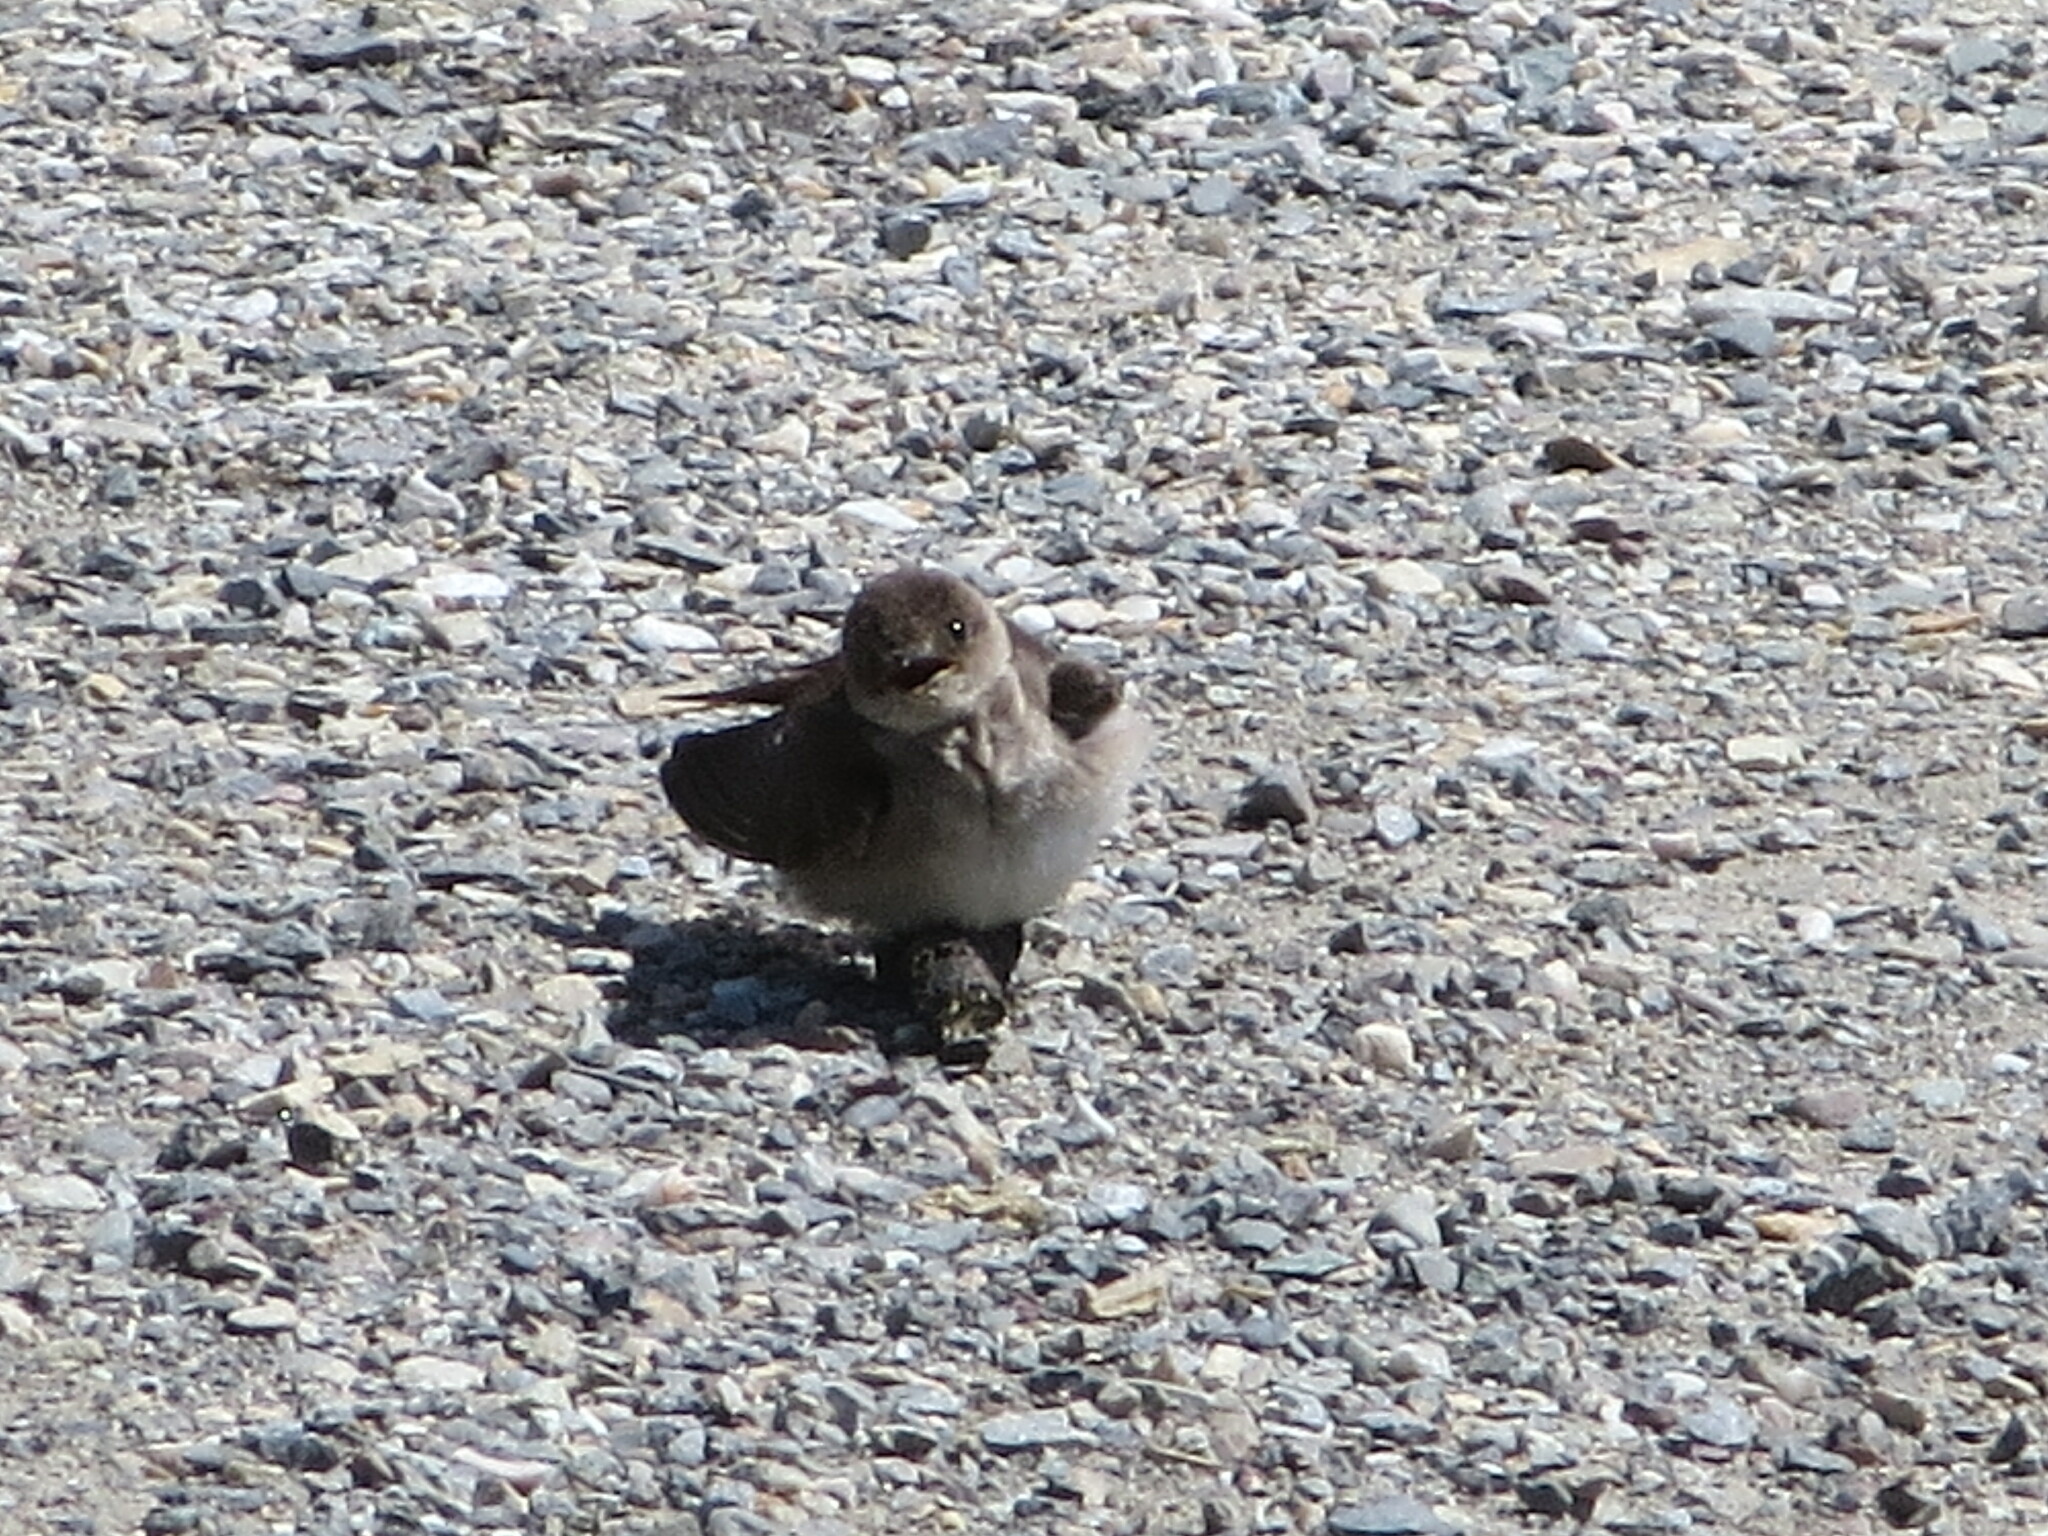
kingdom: Animalia
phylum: Chordata
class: Aves
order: Passeriformes
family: Hirundinidae
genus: Stelgidopteryx
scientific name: Stelgidopteryx serripennis
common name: Northern rough-winged swallow
